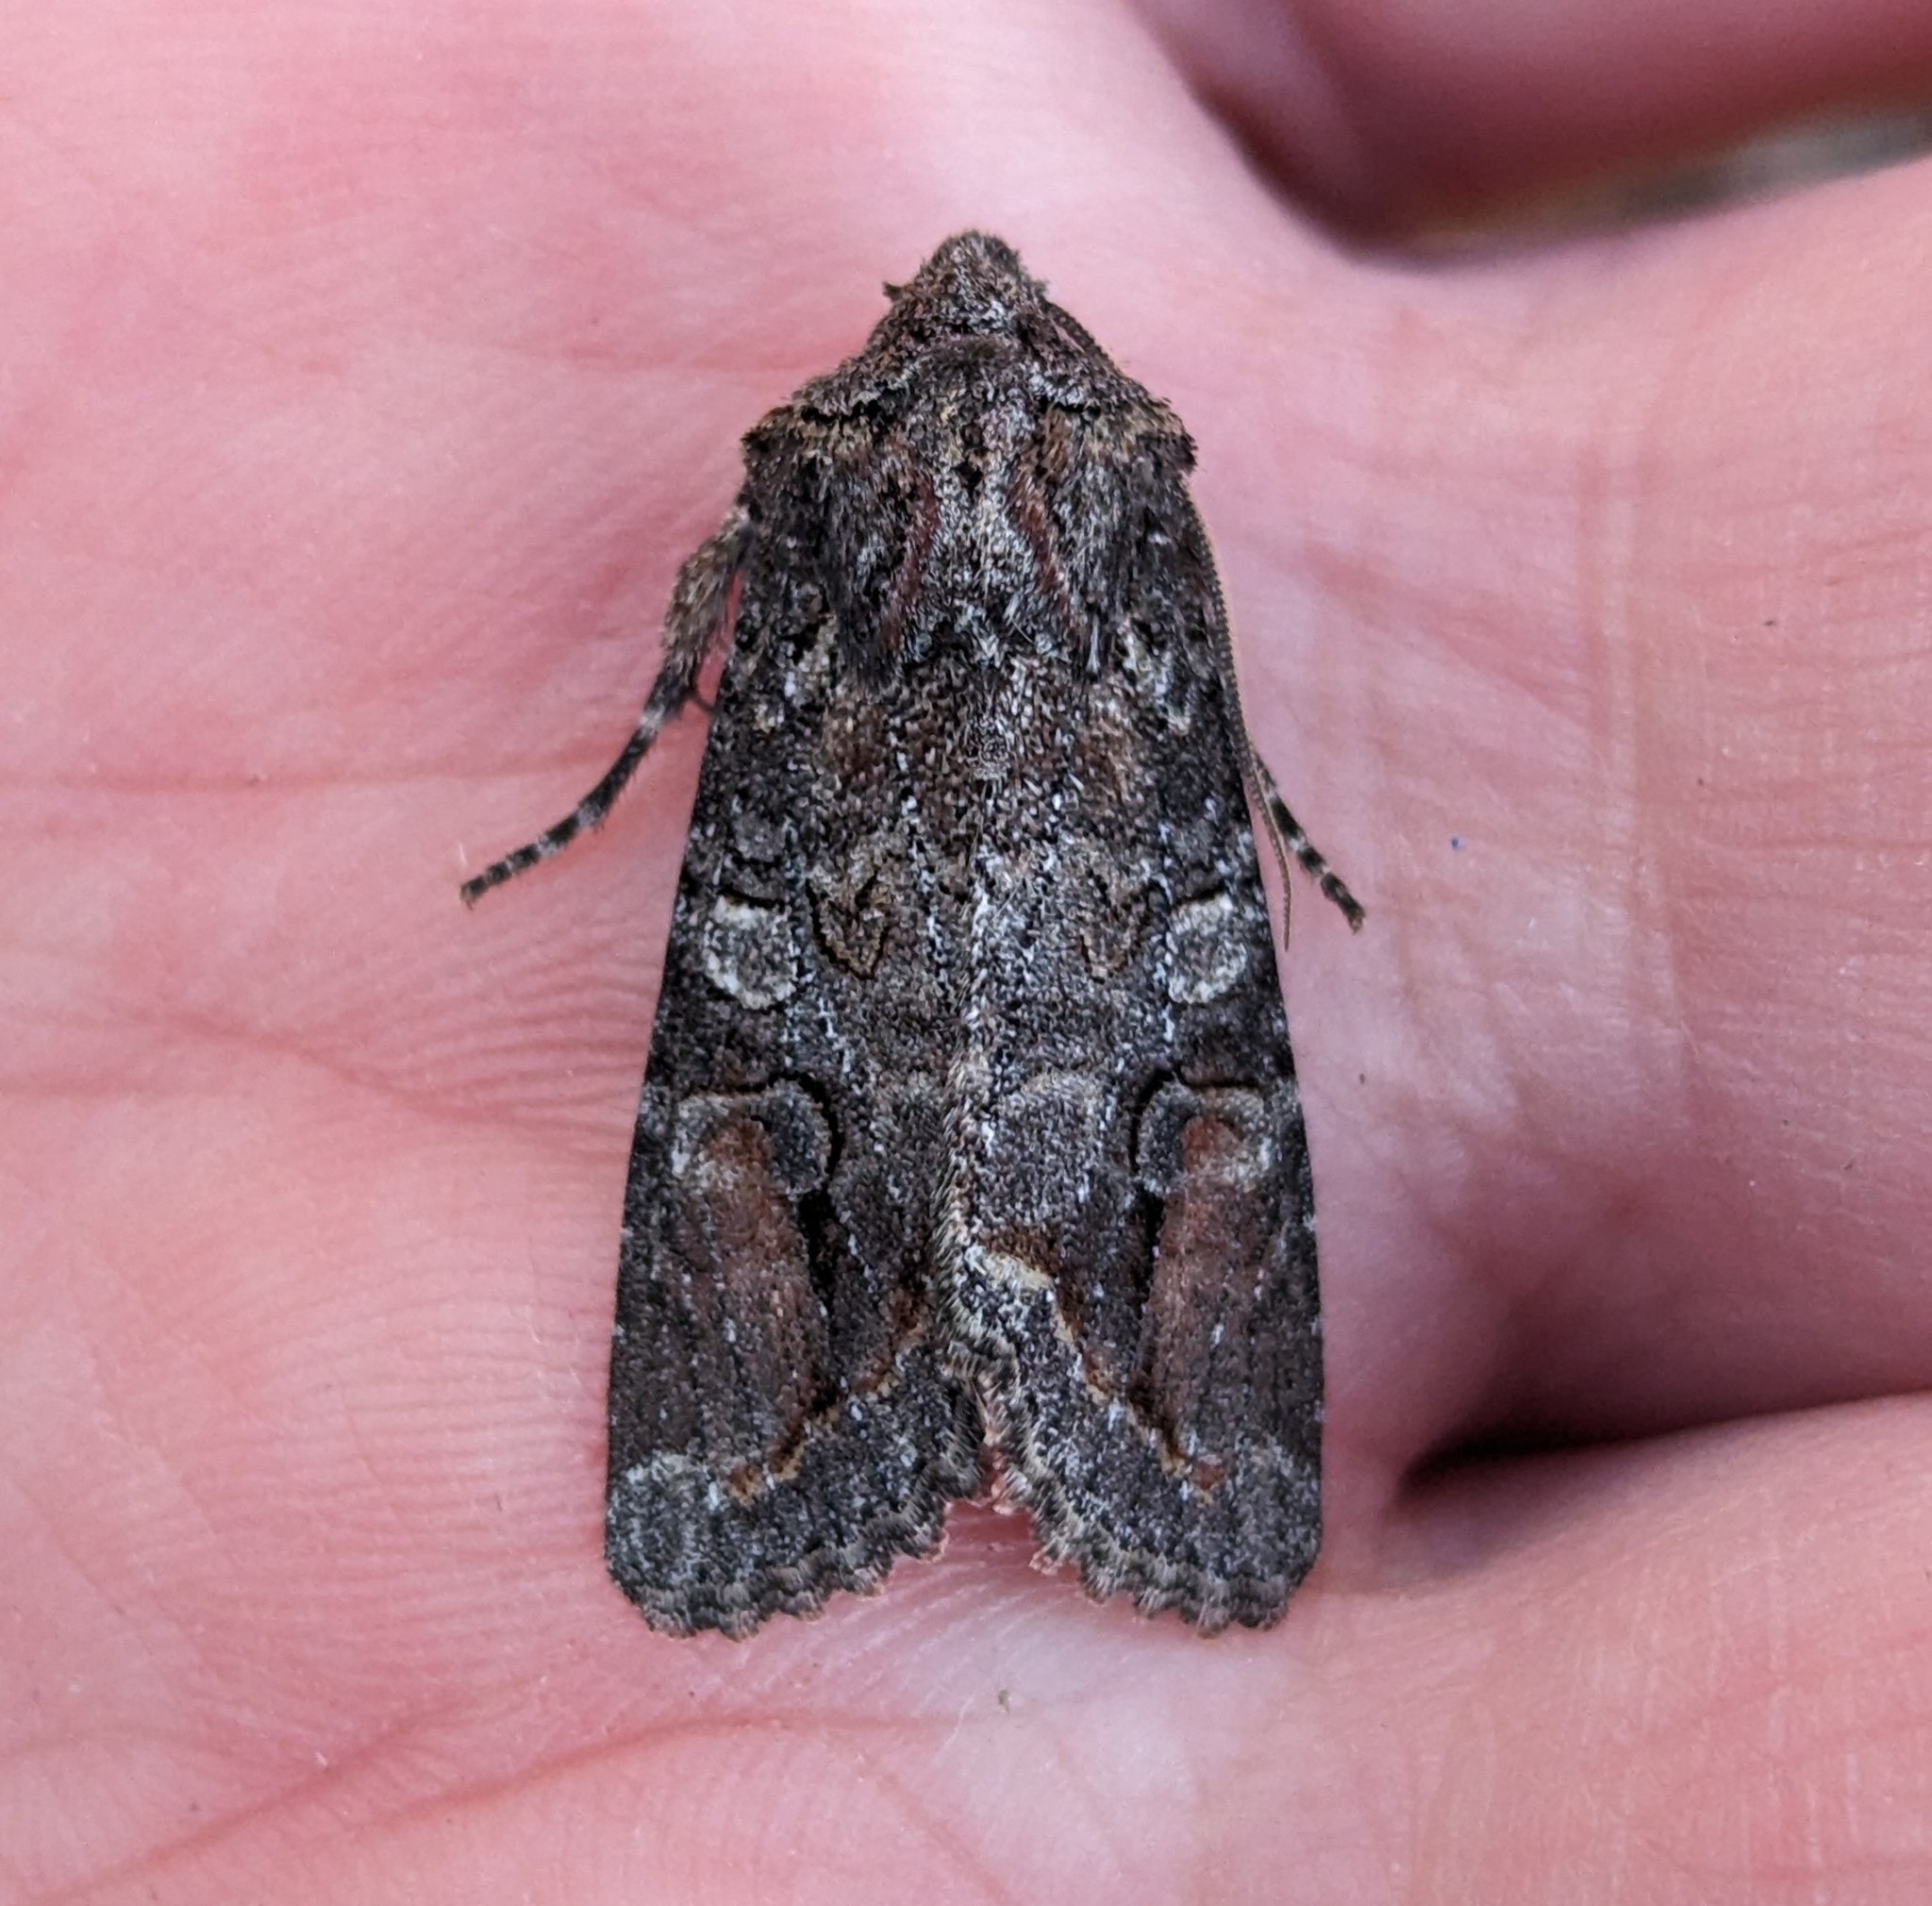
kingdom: Animalia
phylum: Arthropoda
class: Insecta
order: Lepidoptera
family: Noctuidae
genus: Egira
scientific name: Egira perlubens
